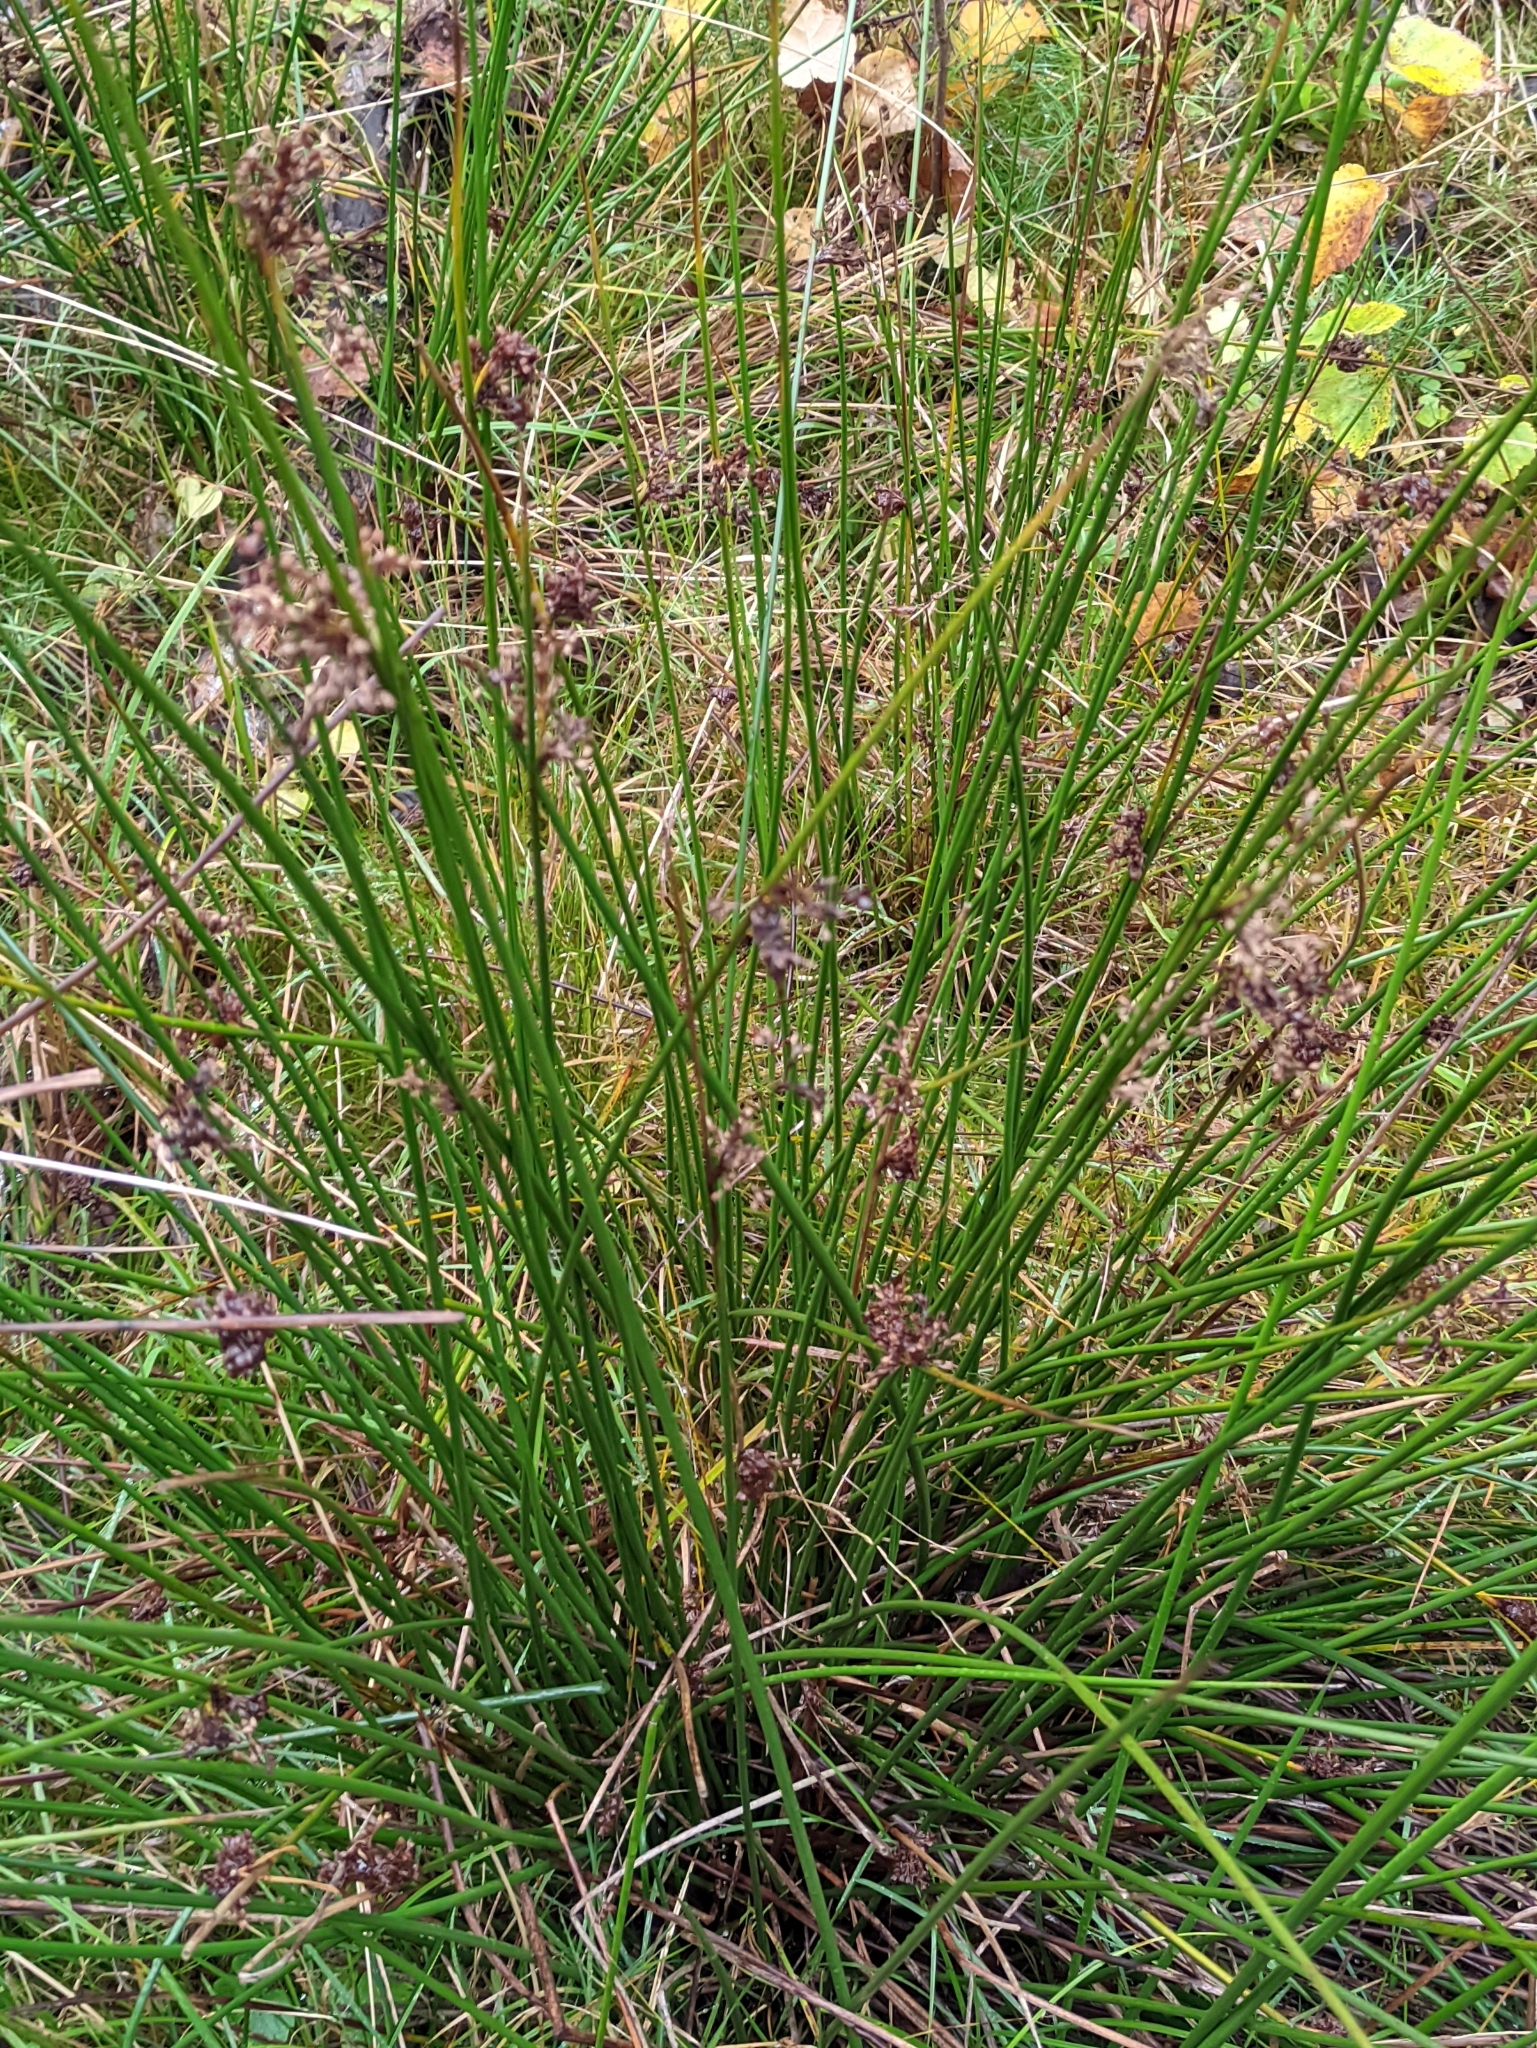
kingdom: Plantae
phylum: Tracheophyta
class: Liliopsida
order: Poales
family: Juncaceae
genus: Juncus
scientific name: Juncus effusus
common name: Soft rush
